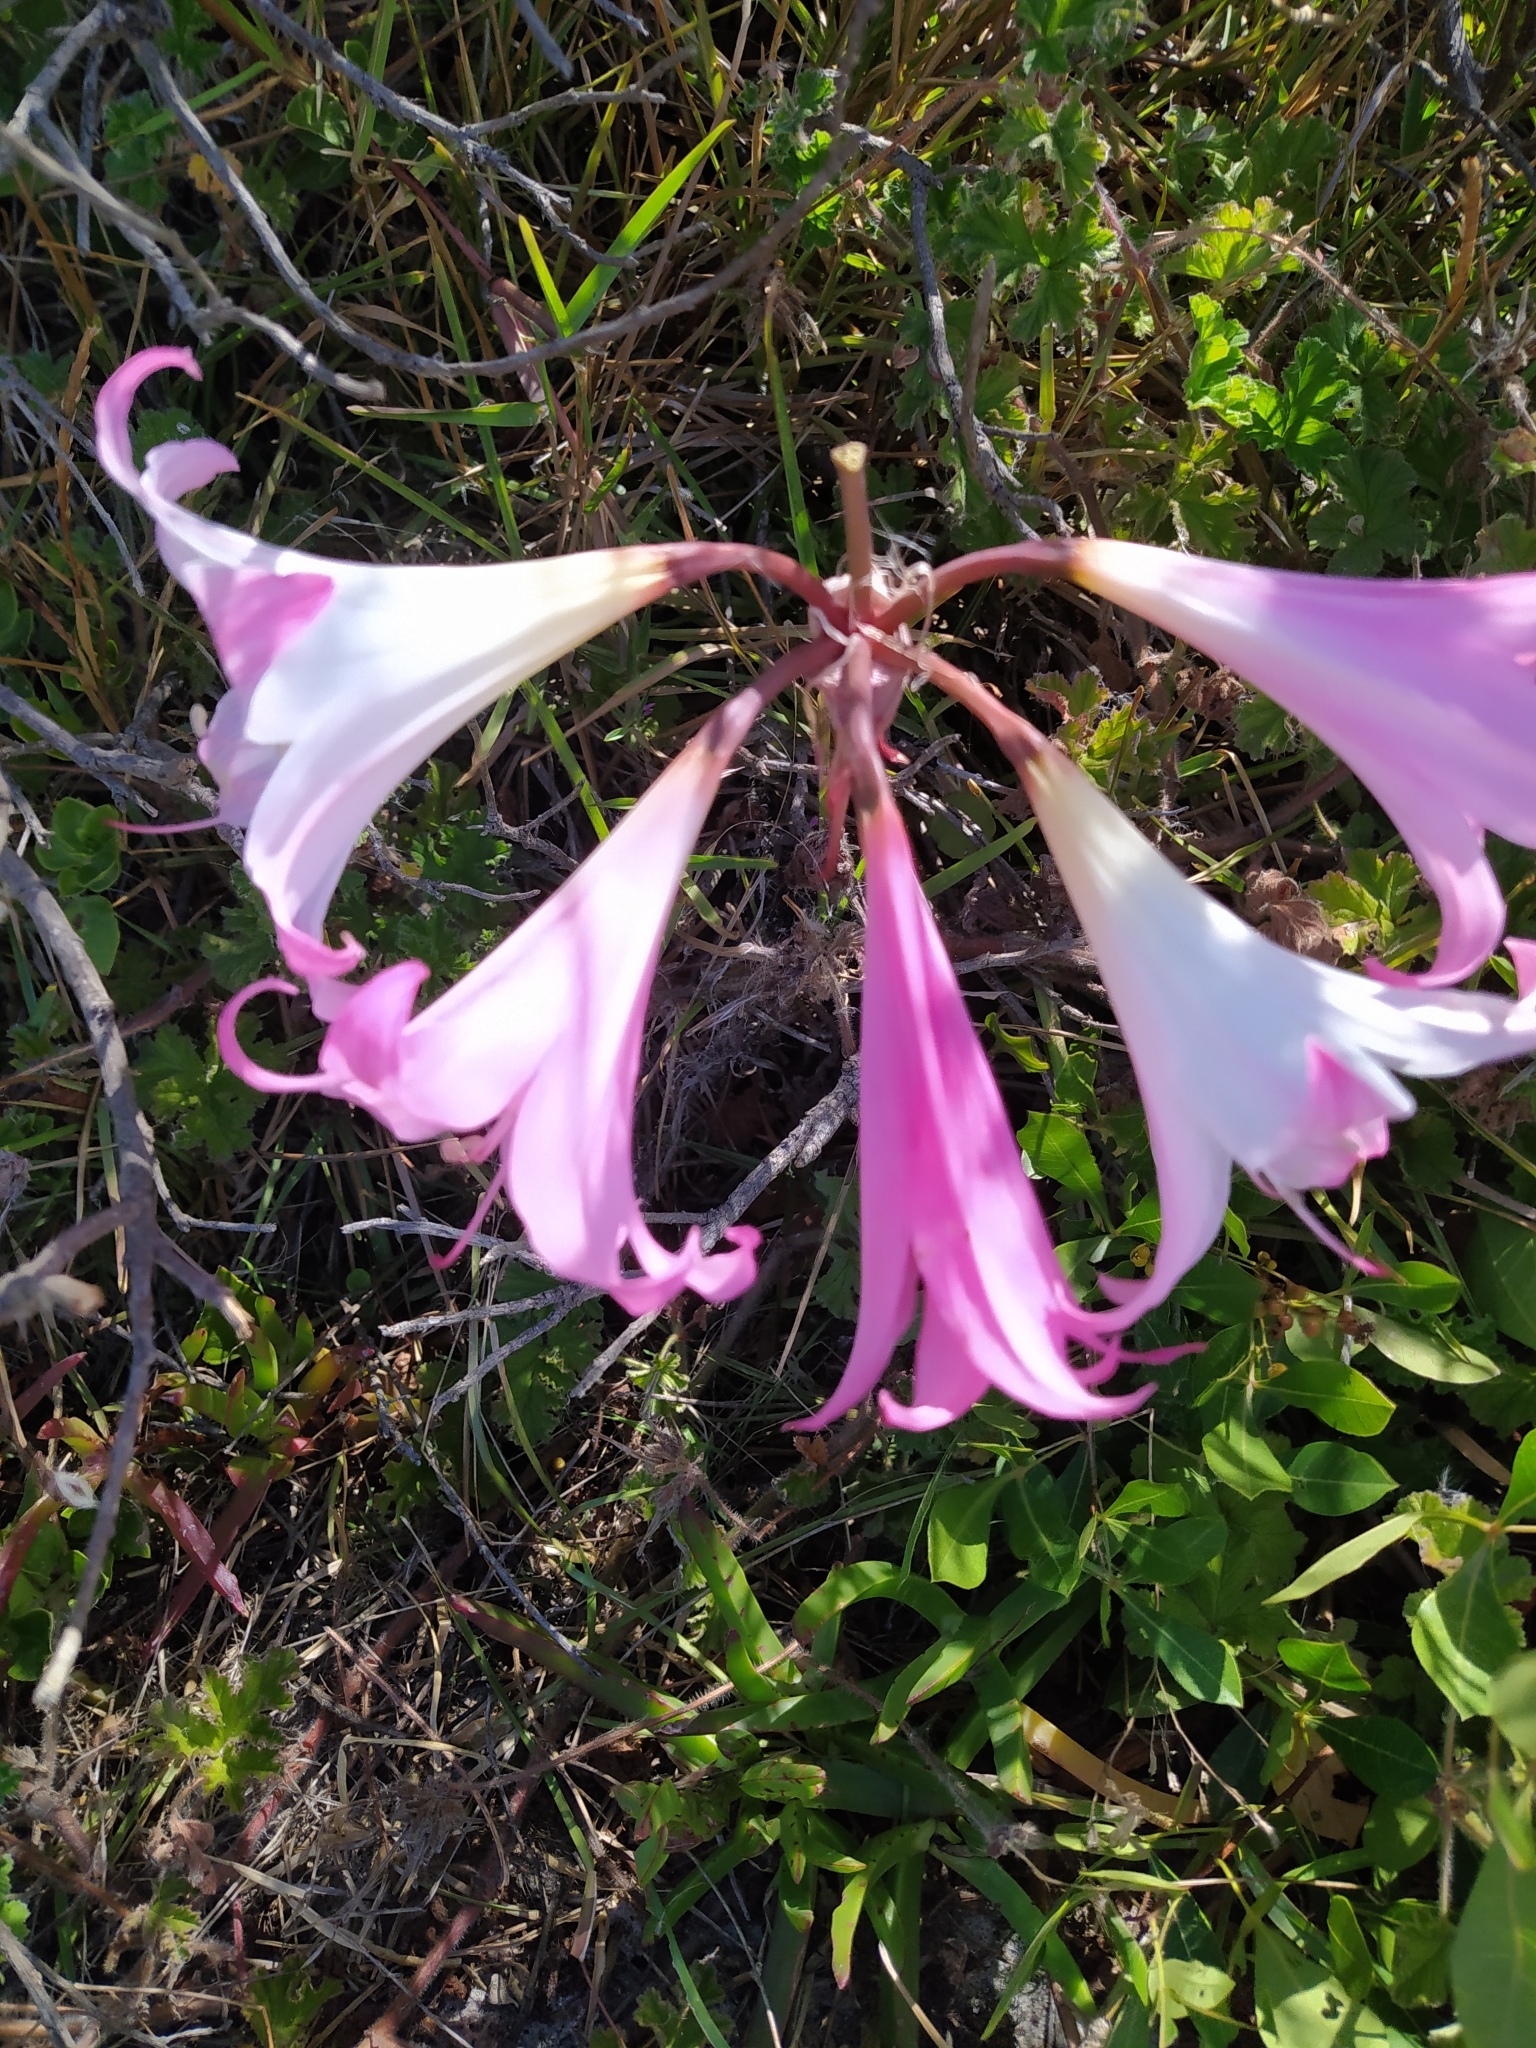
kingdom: Plantae
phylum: Tracheophyta
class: Liliopsida
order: Asparagales
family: Amaryllidaceae
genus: Amaryllis
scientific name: Amaryllis belladonna
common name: Jersey lily
